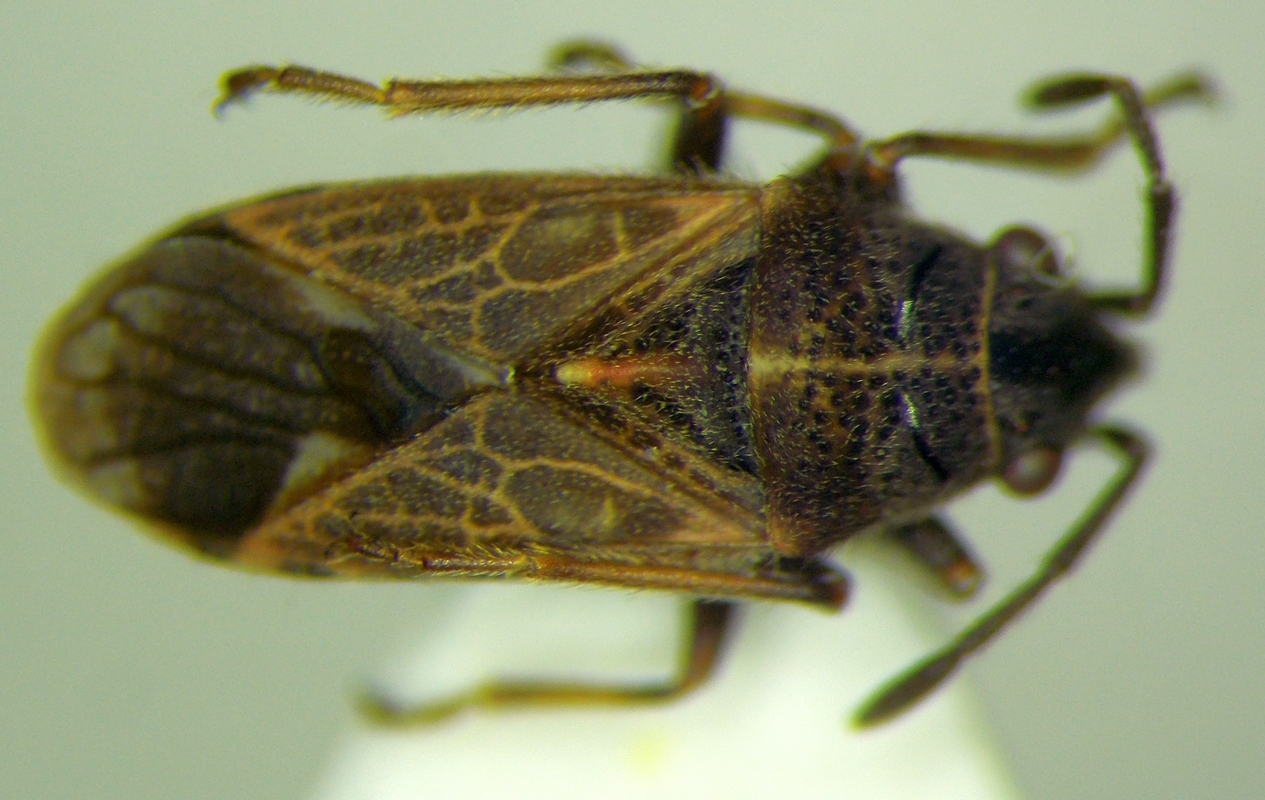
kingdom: Animalia
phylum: Arthropoda
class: Insecta
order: Hemiptera
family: Lygaeidae
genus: Lygaeosoma
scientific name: Lygaeosoma sardeum
